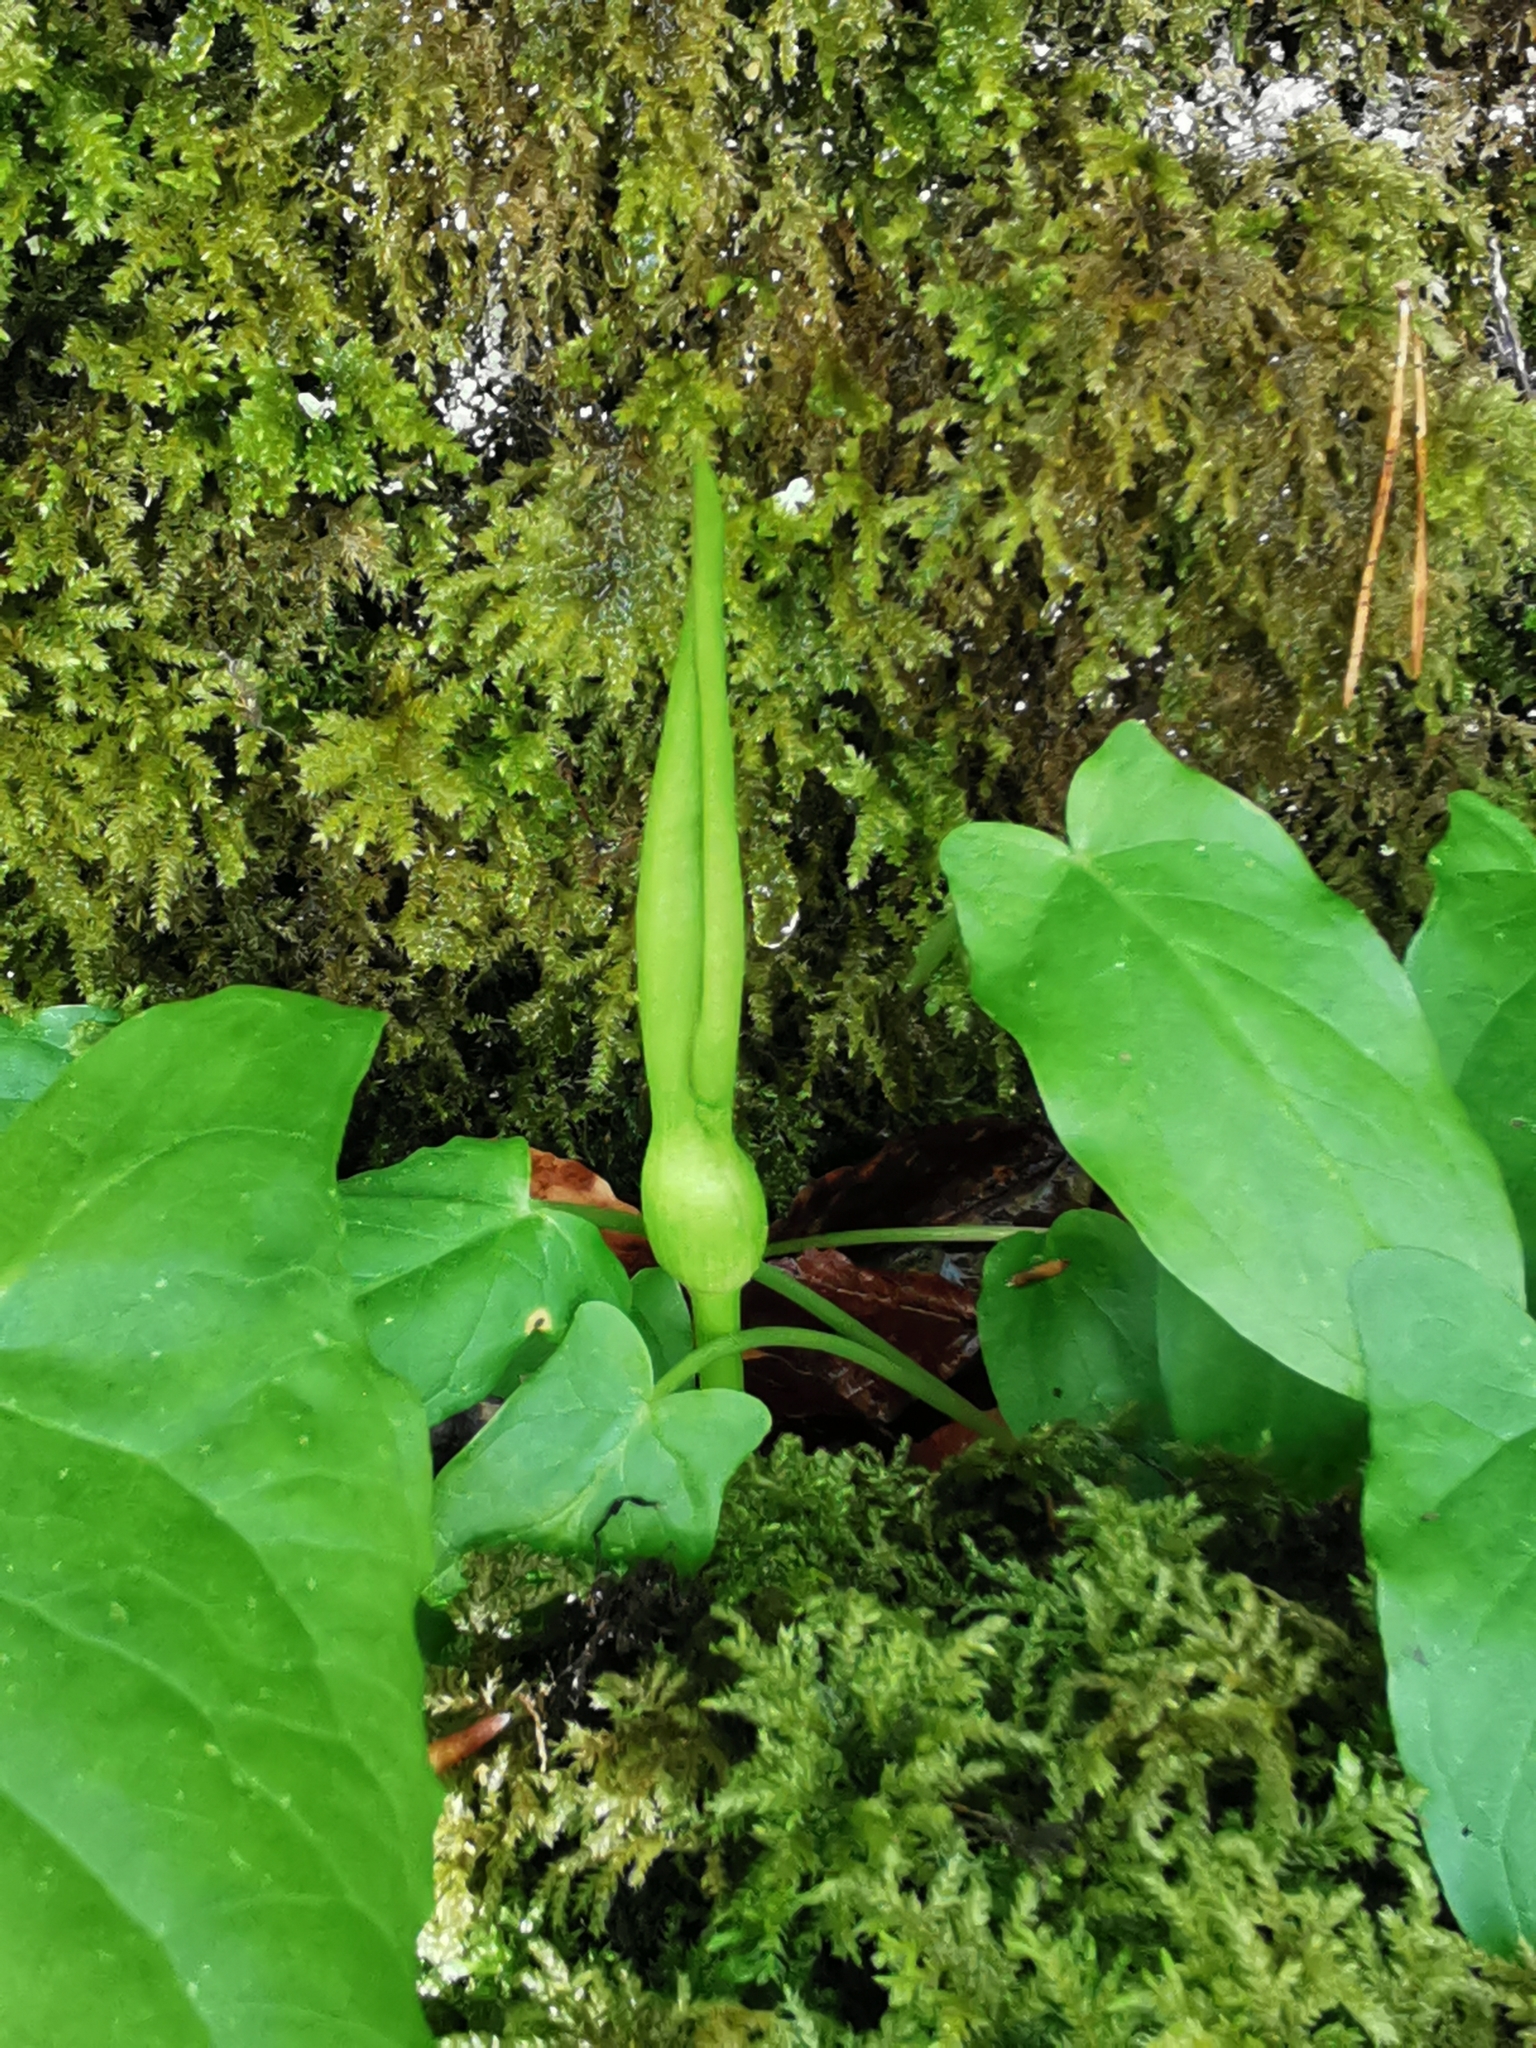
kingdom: Plantae
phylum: Tracheophyta
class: Liliopsida
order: Alismatales
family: Araceae
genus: Arum
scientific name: Arum maculatum
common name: Lords-and-ladies
